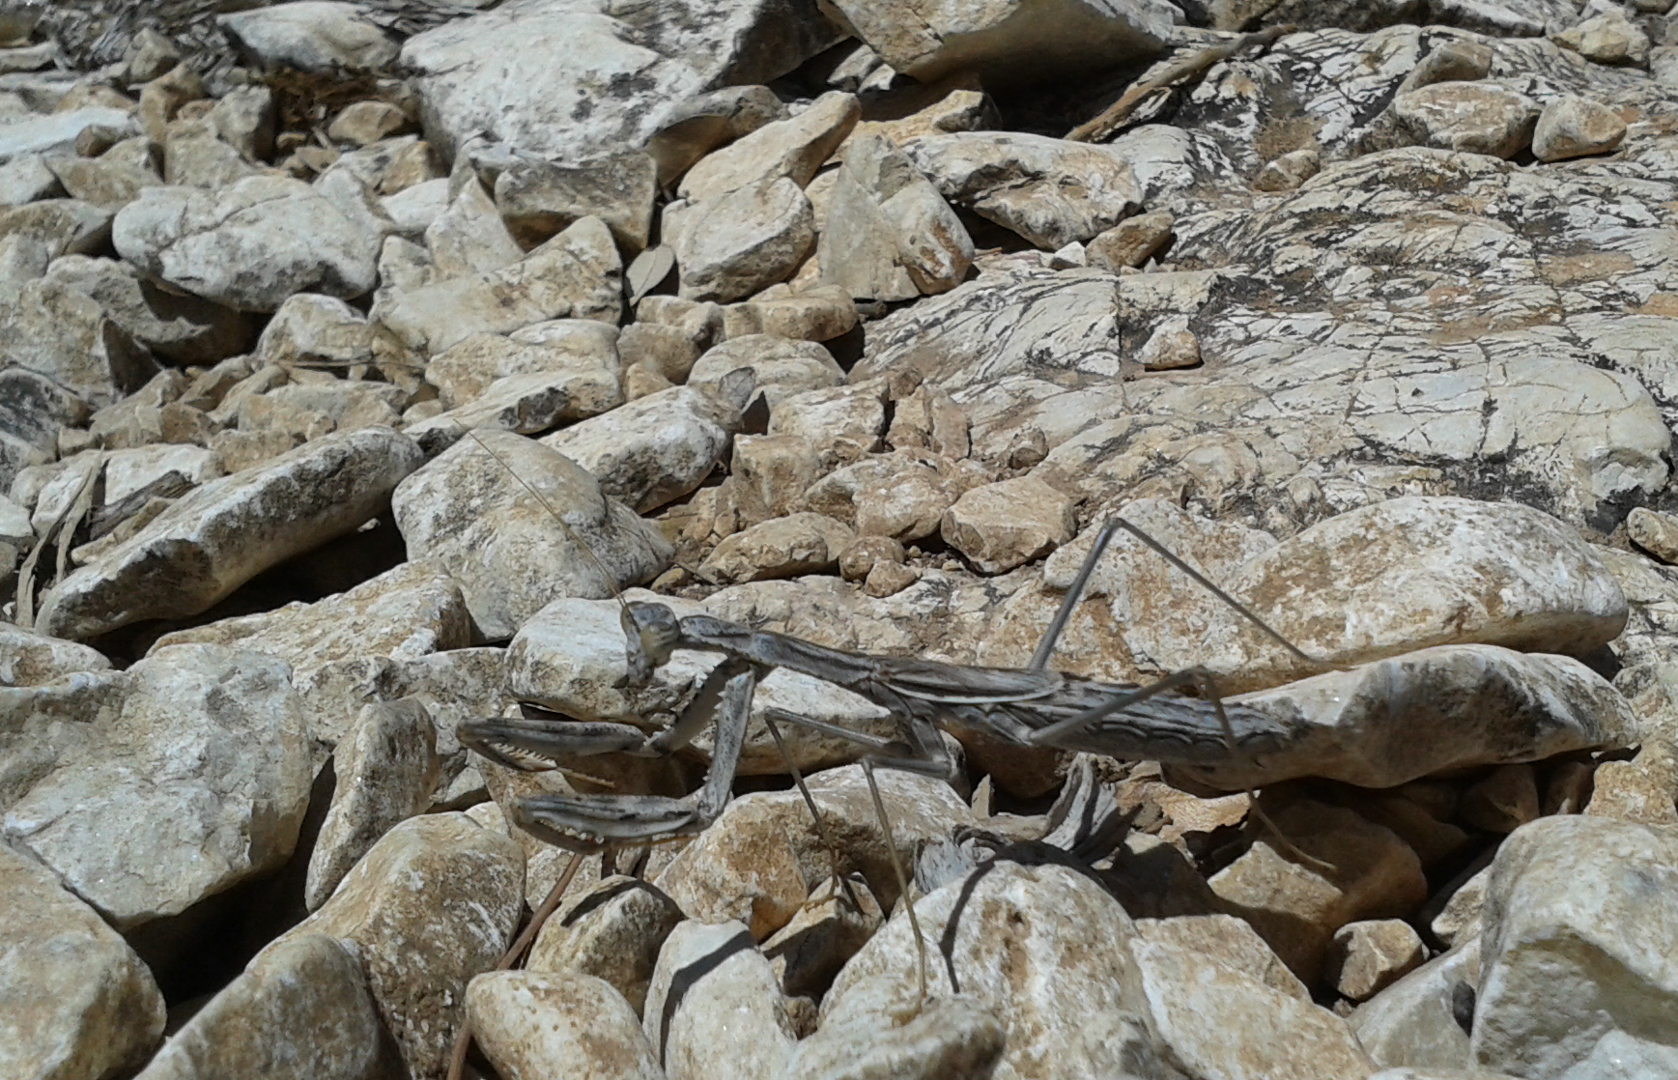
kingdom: Animalia
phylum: Arthropoda
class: Insecta
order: Mantodea
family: Rivetinidae
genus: Rivetina
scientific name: Rivetina balcanica
